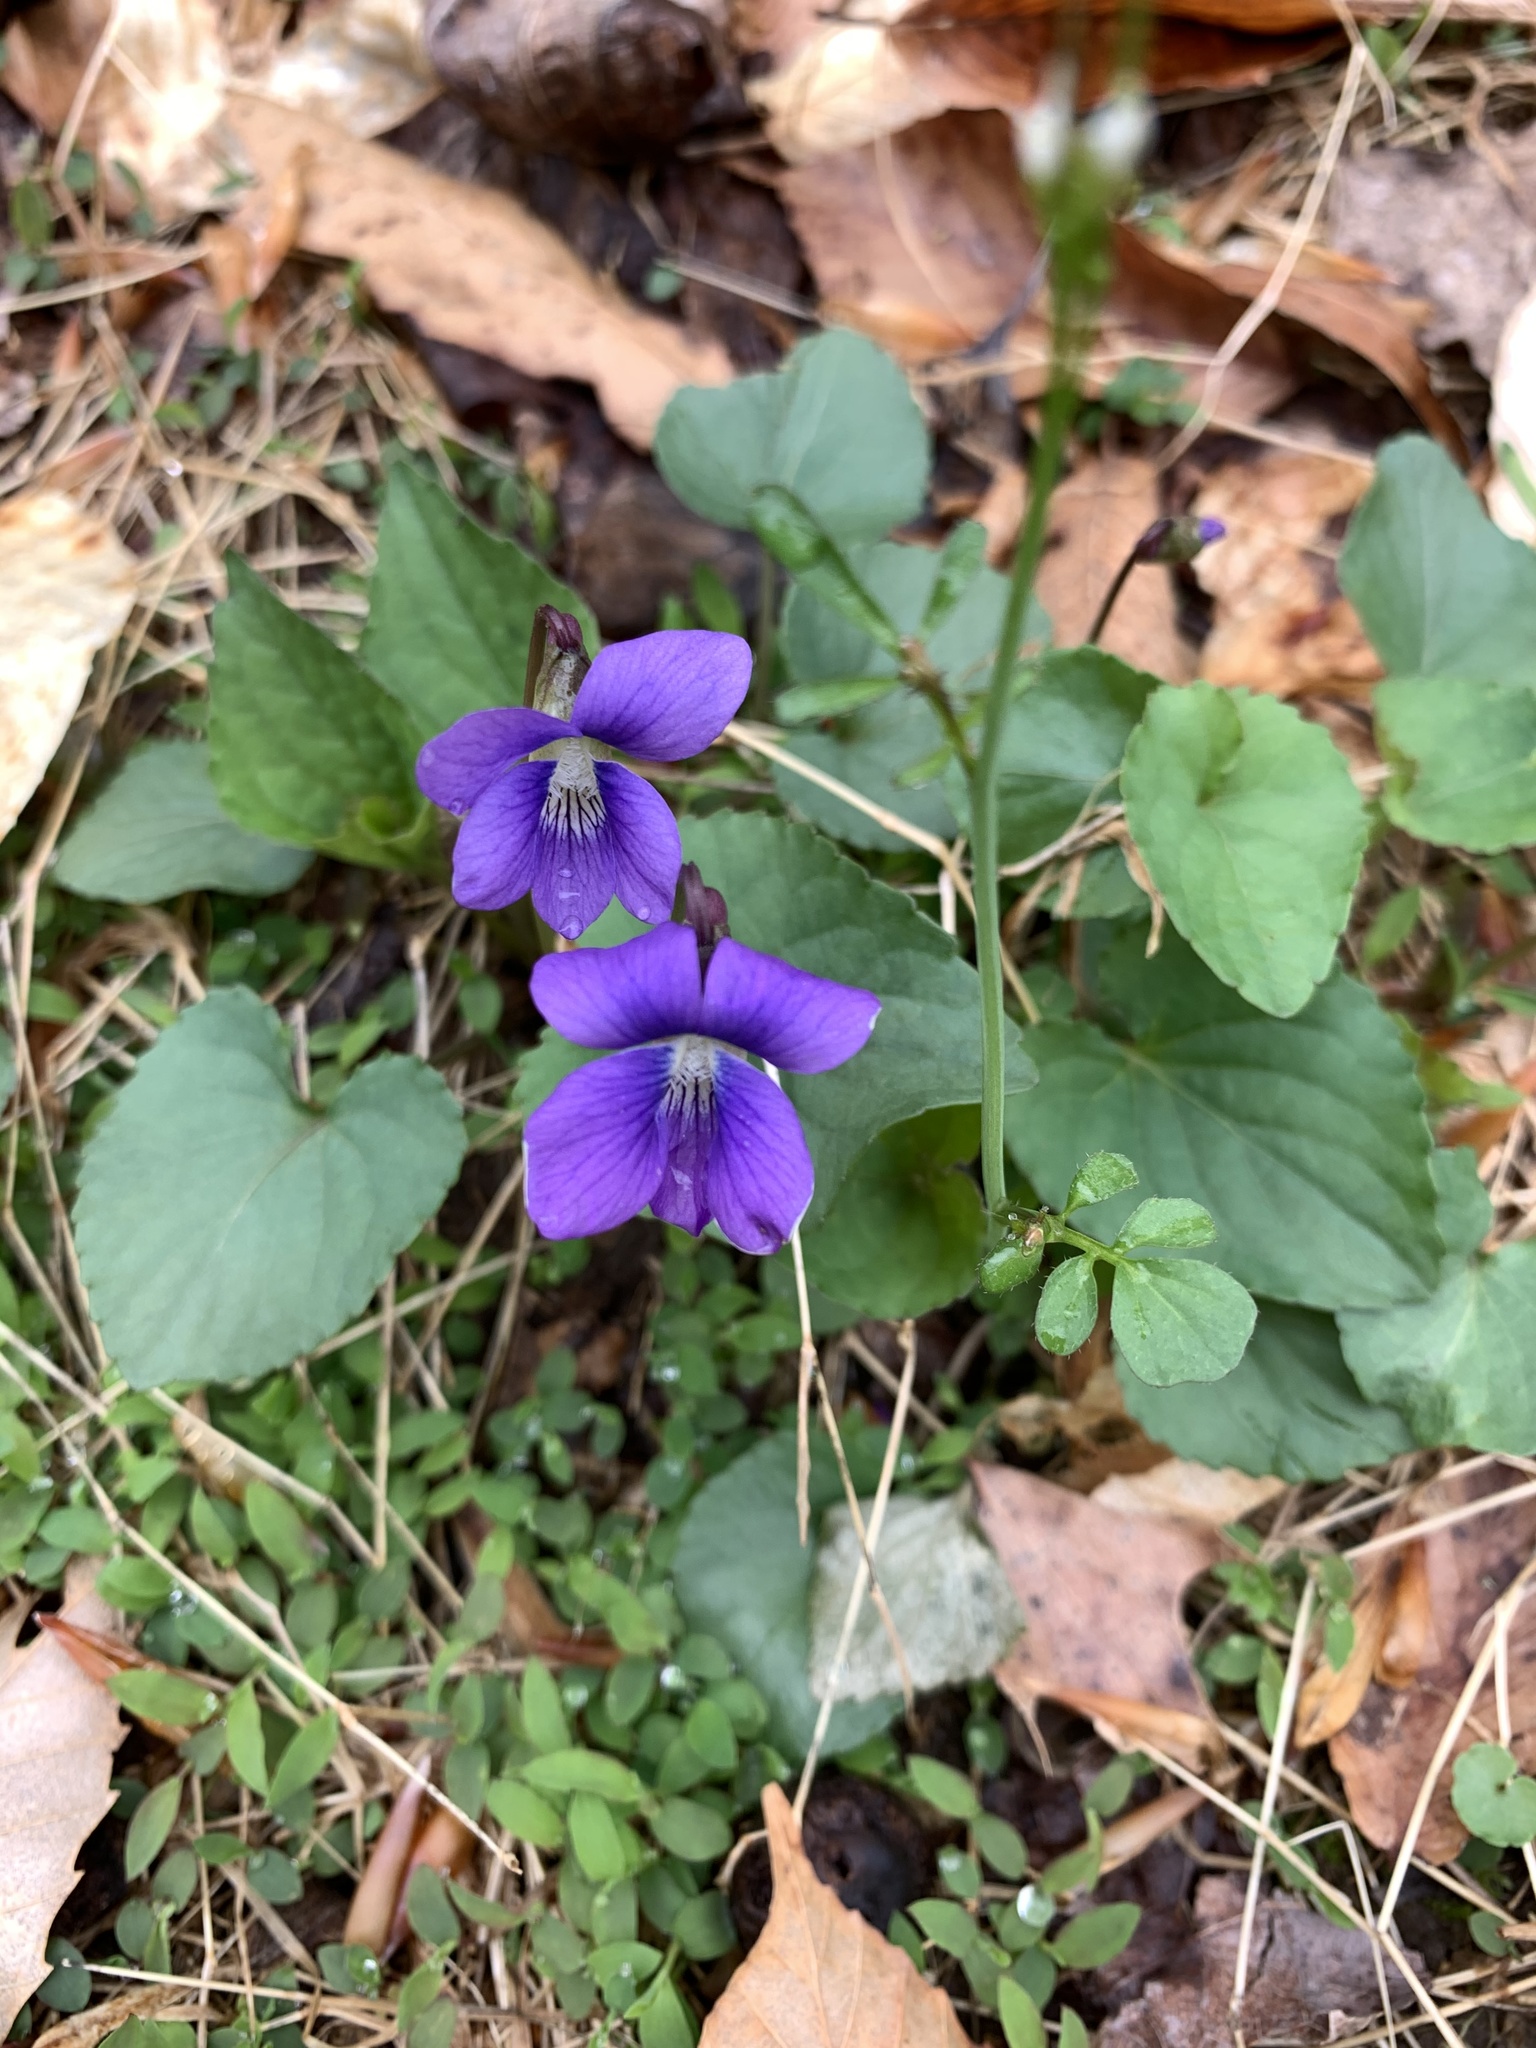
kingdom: Plantae
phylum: Tracheophyta
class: Magnoliopsida
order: Malpighiales
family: Violaceae
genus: Viola
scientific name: Viola sororia
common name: Dooryard violet
